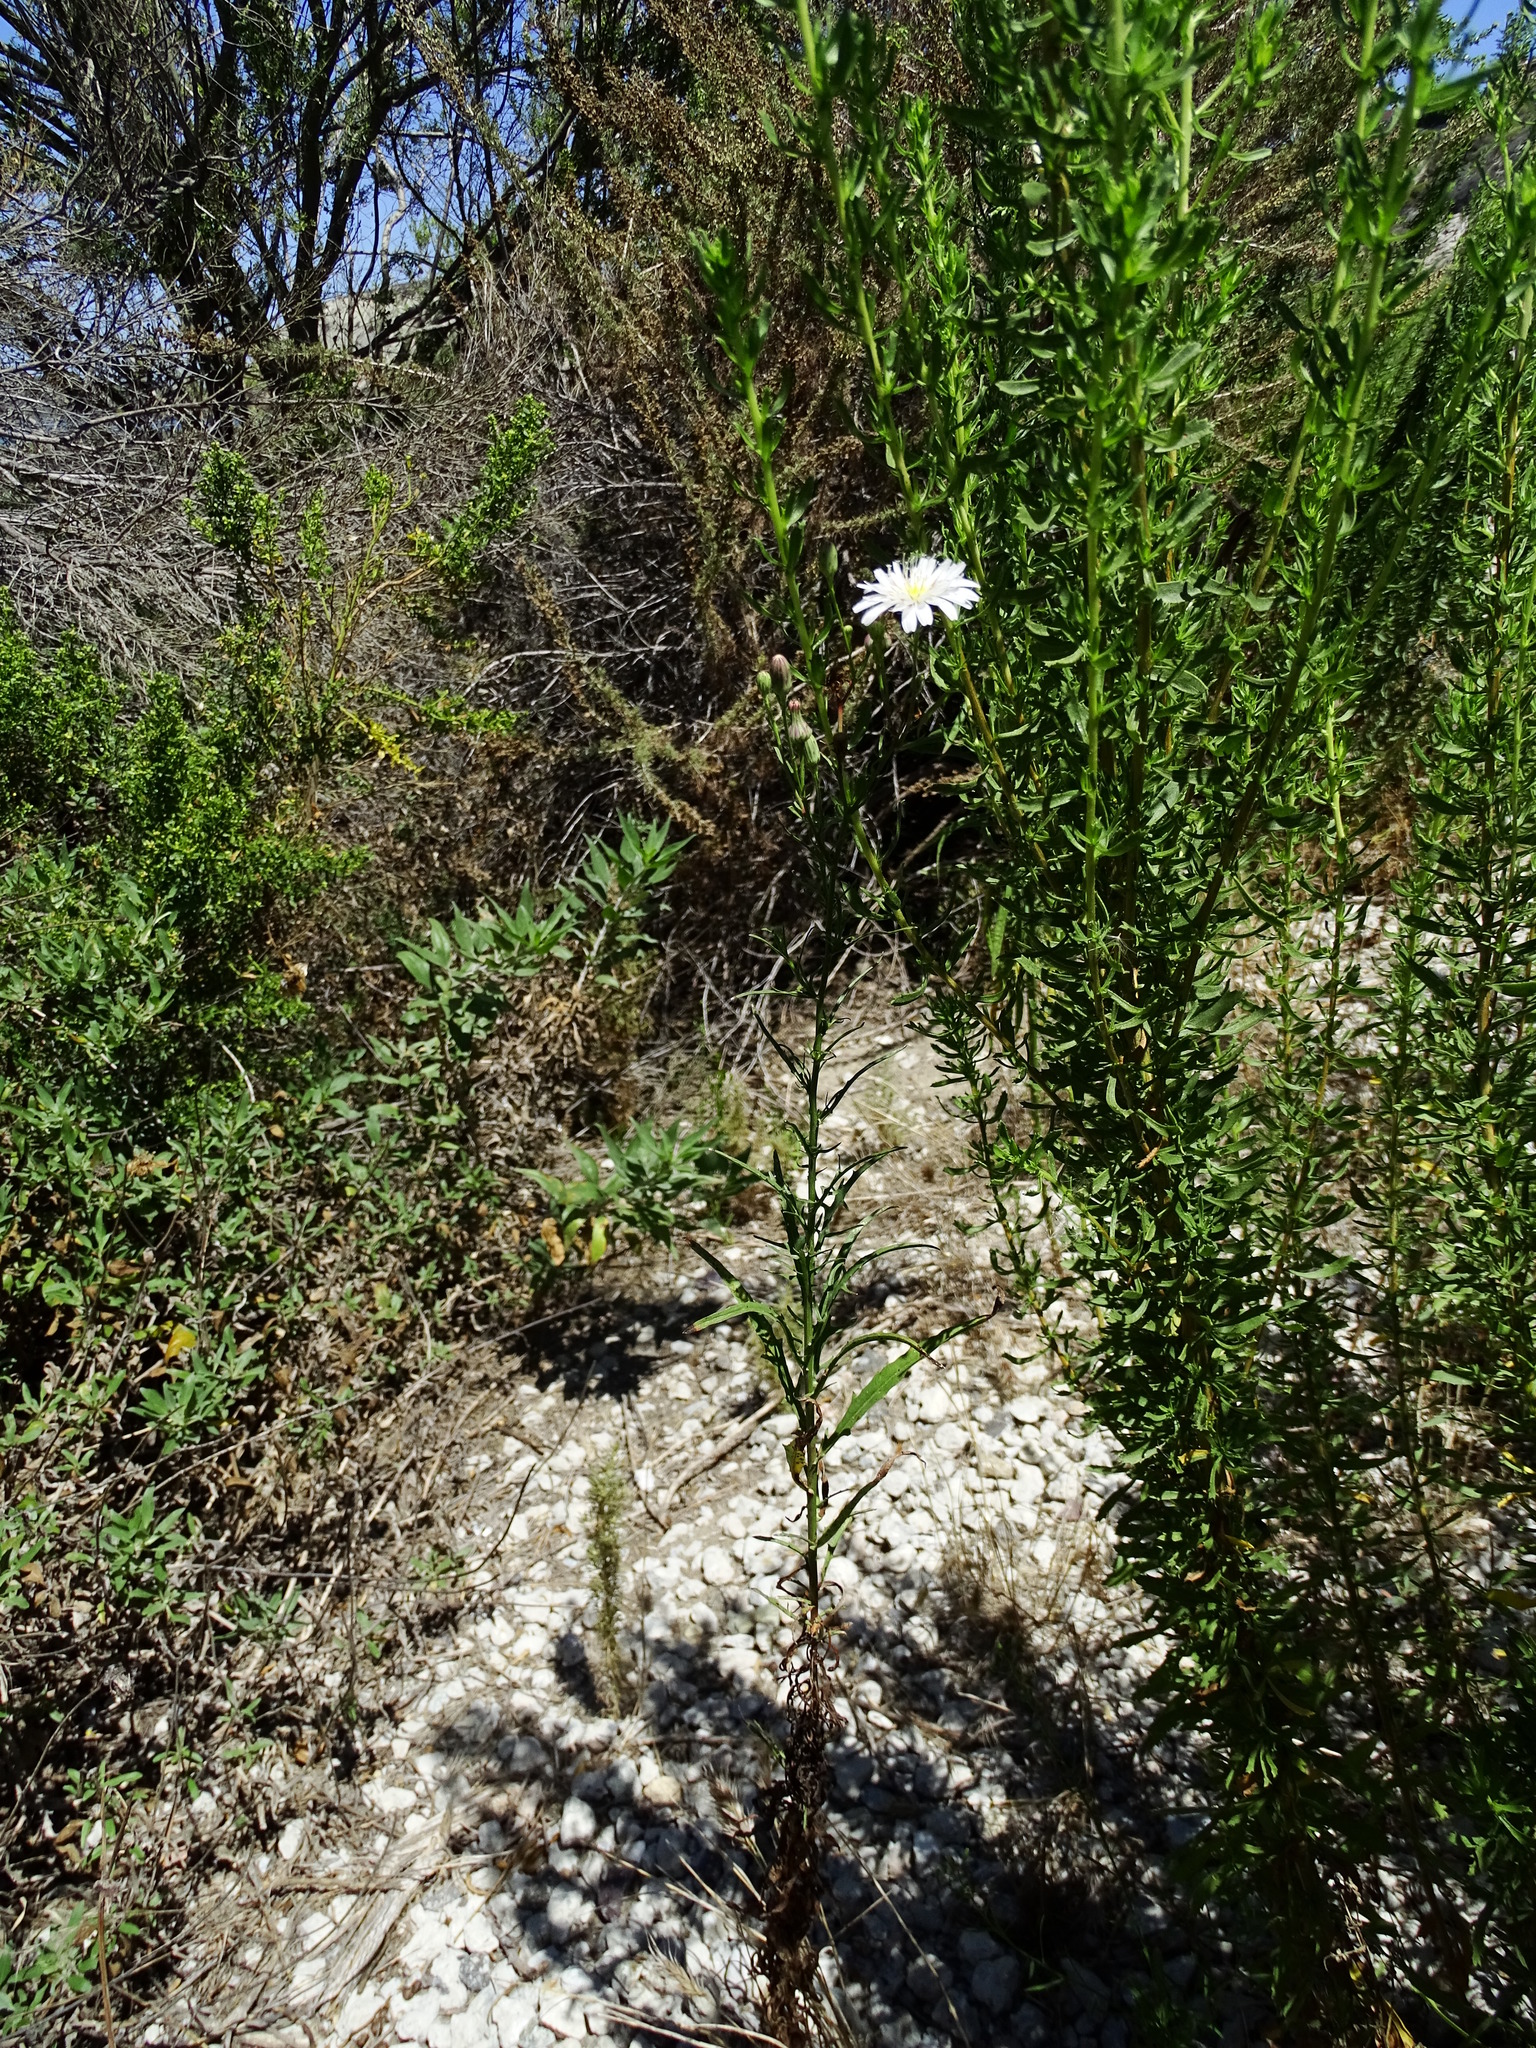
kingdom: Plantae
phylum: Tracheophyta
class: Magnoliopsida
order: Asterales
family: Asteraceae
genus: Malacothrix
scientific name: Malacothrix saxatilis
